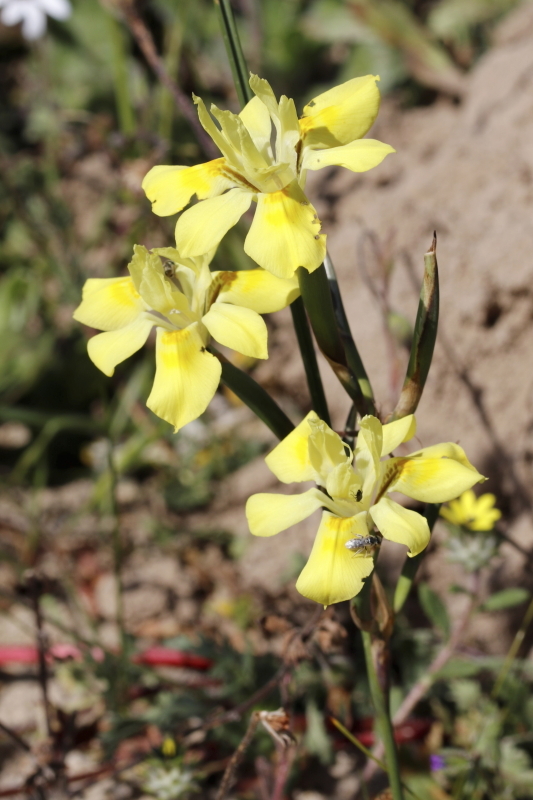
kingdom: Plantae
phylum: Tracheophyta
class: Liliopsida
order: Asparagales
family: Iridaceae
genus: Moraea
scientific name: Moraea fugax
